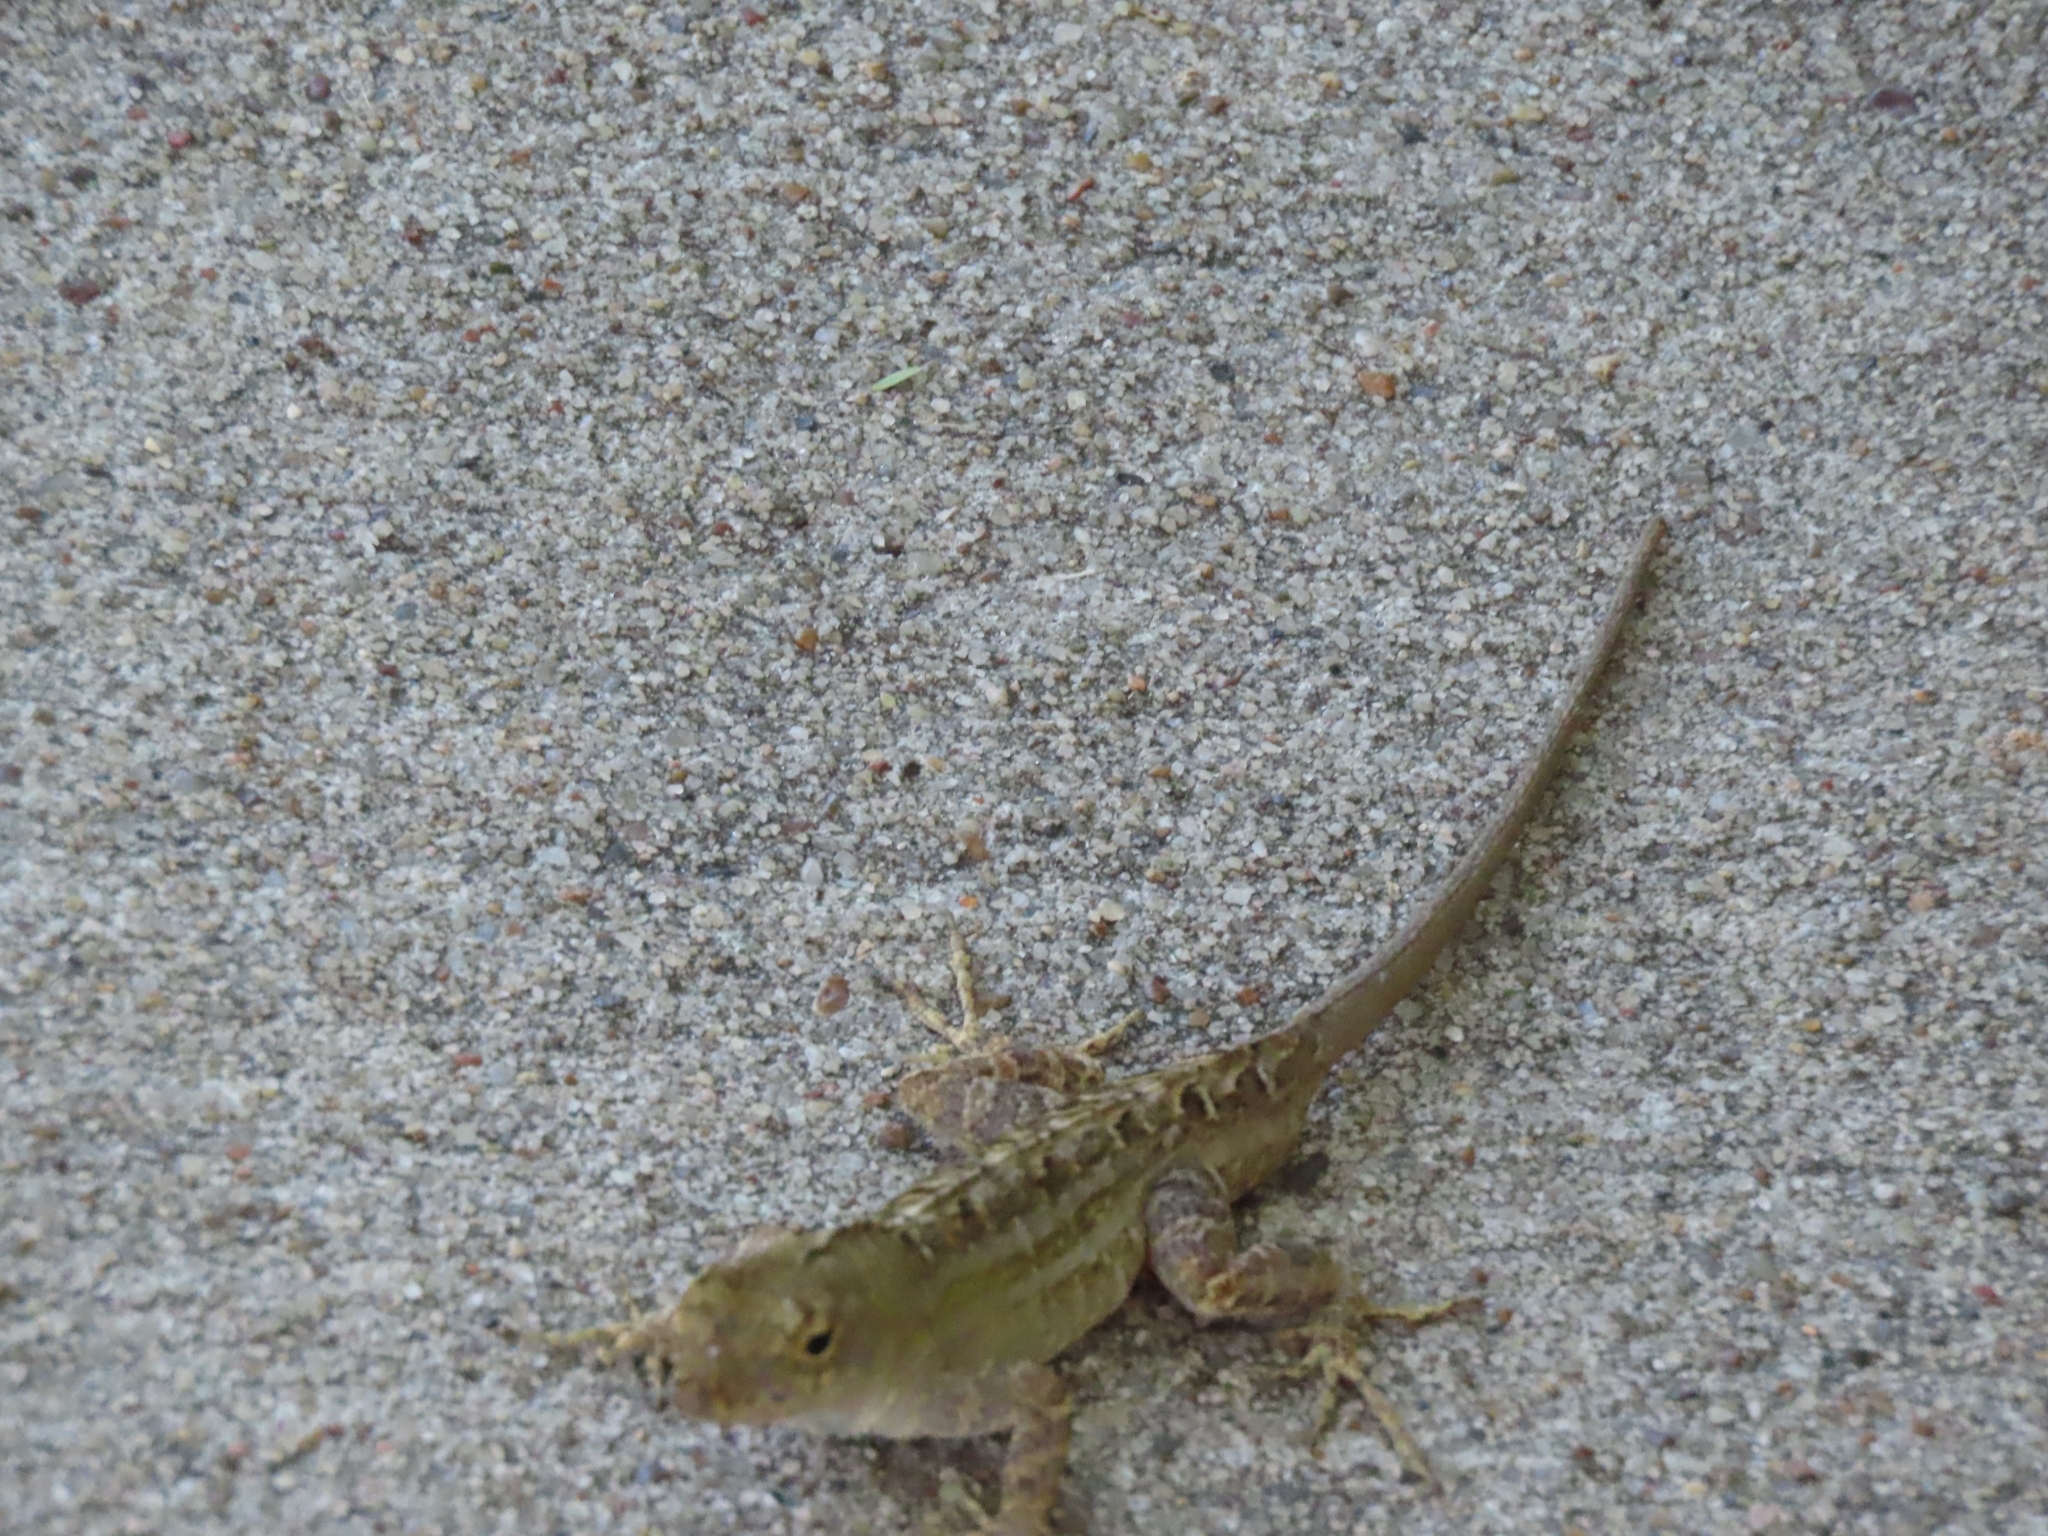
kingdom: Animalia
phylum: Chordata
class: Squamata
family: Dactyloidae
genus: Anolis
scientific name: Anolis sagrei
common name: Brown anole
